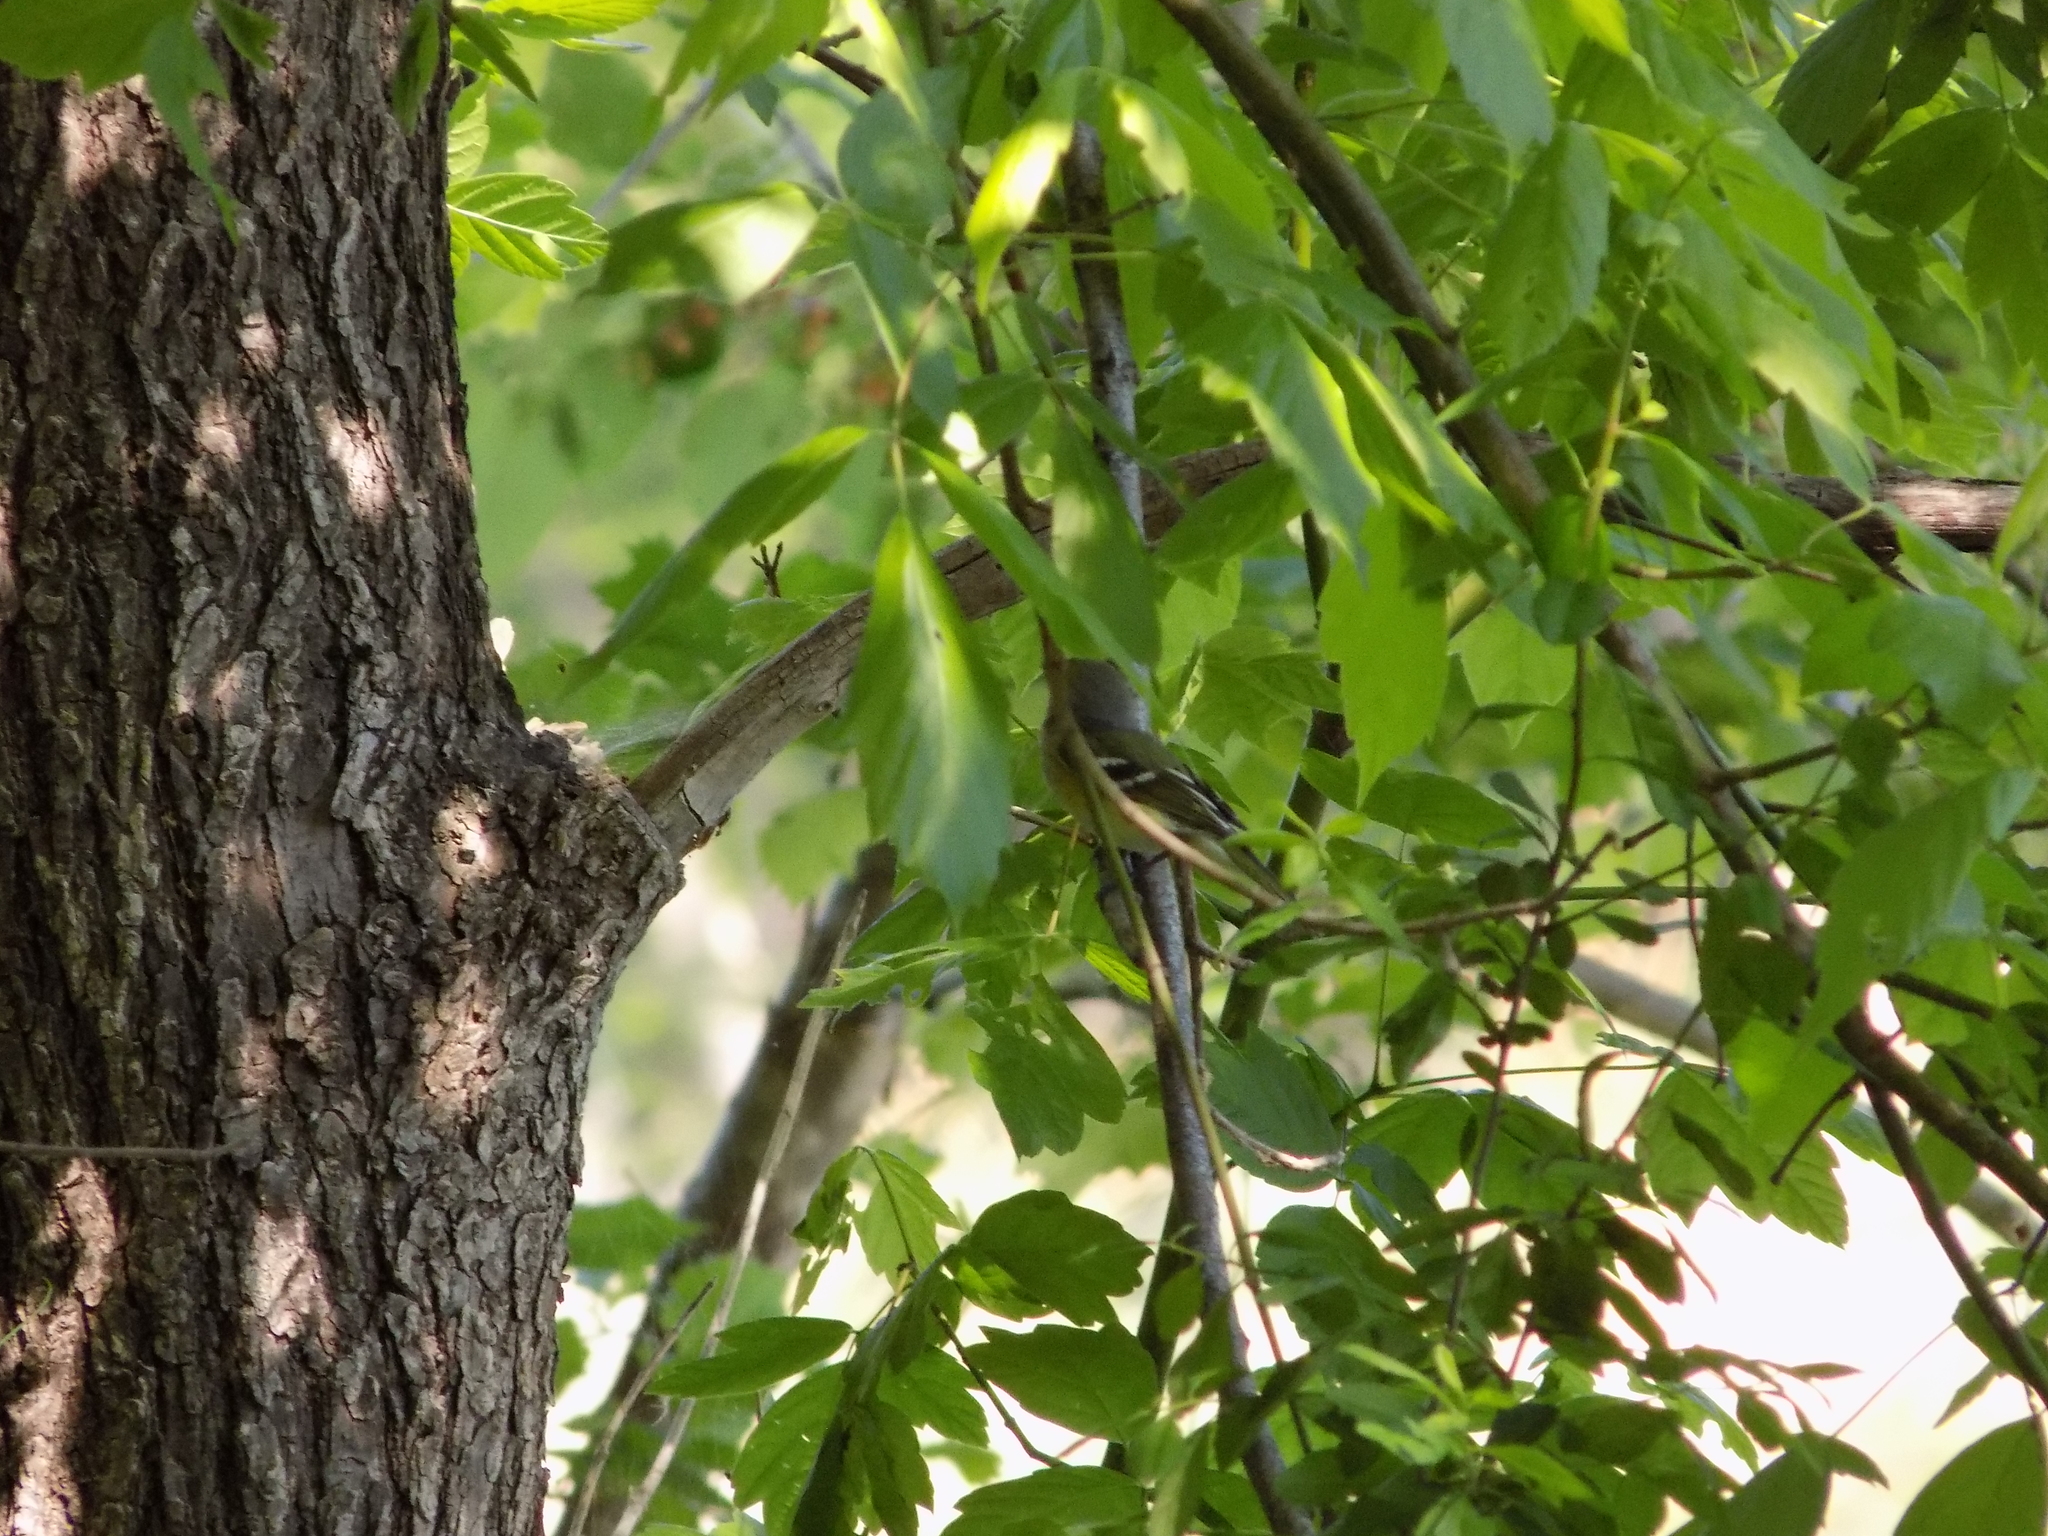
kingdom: Animalia
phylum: Chordata
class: Aves
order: Passeriformes
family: Vireonidae
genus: Vireo
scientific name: Vireo griseus
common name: White-eyed vireo
